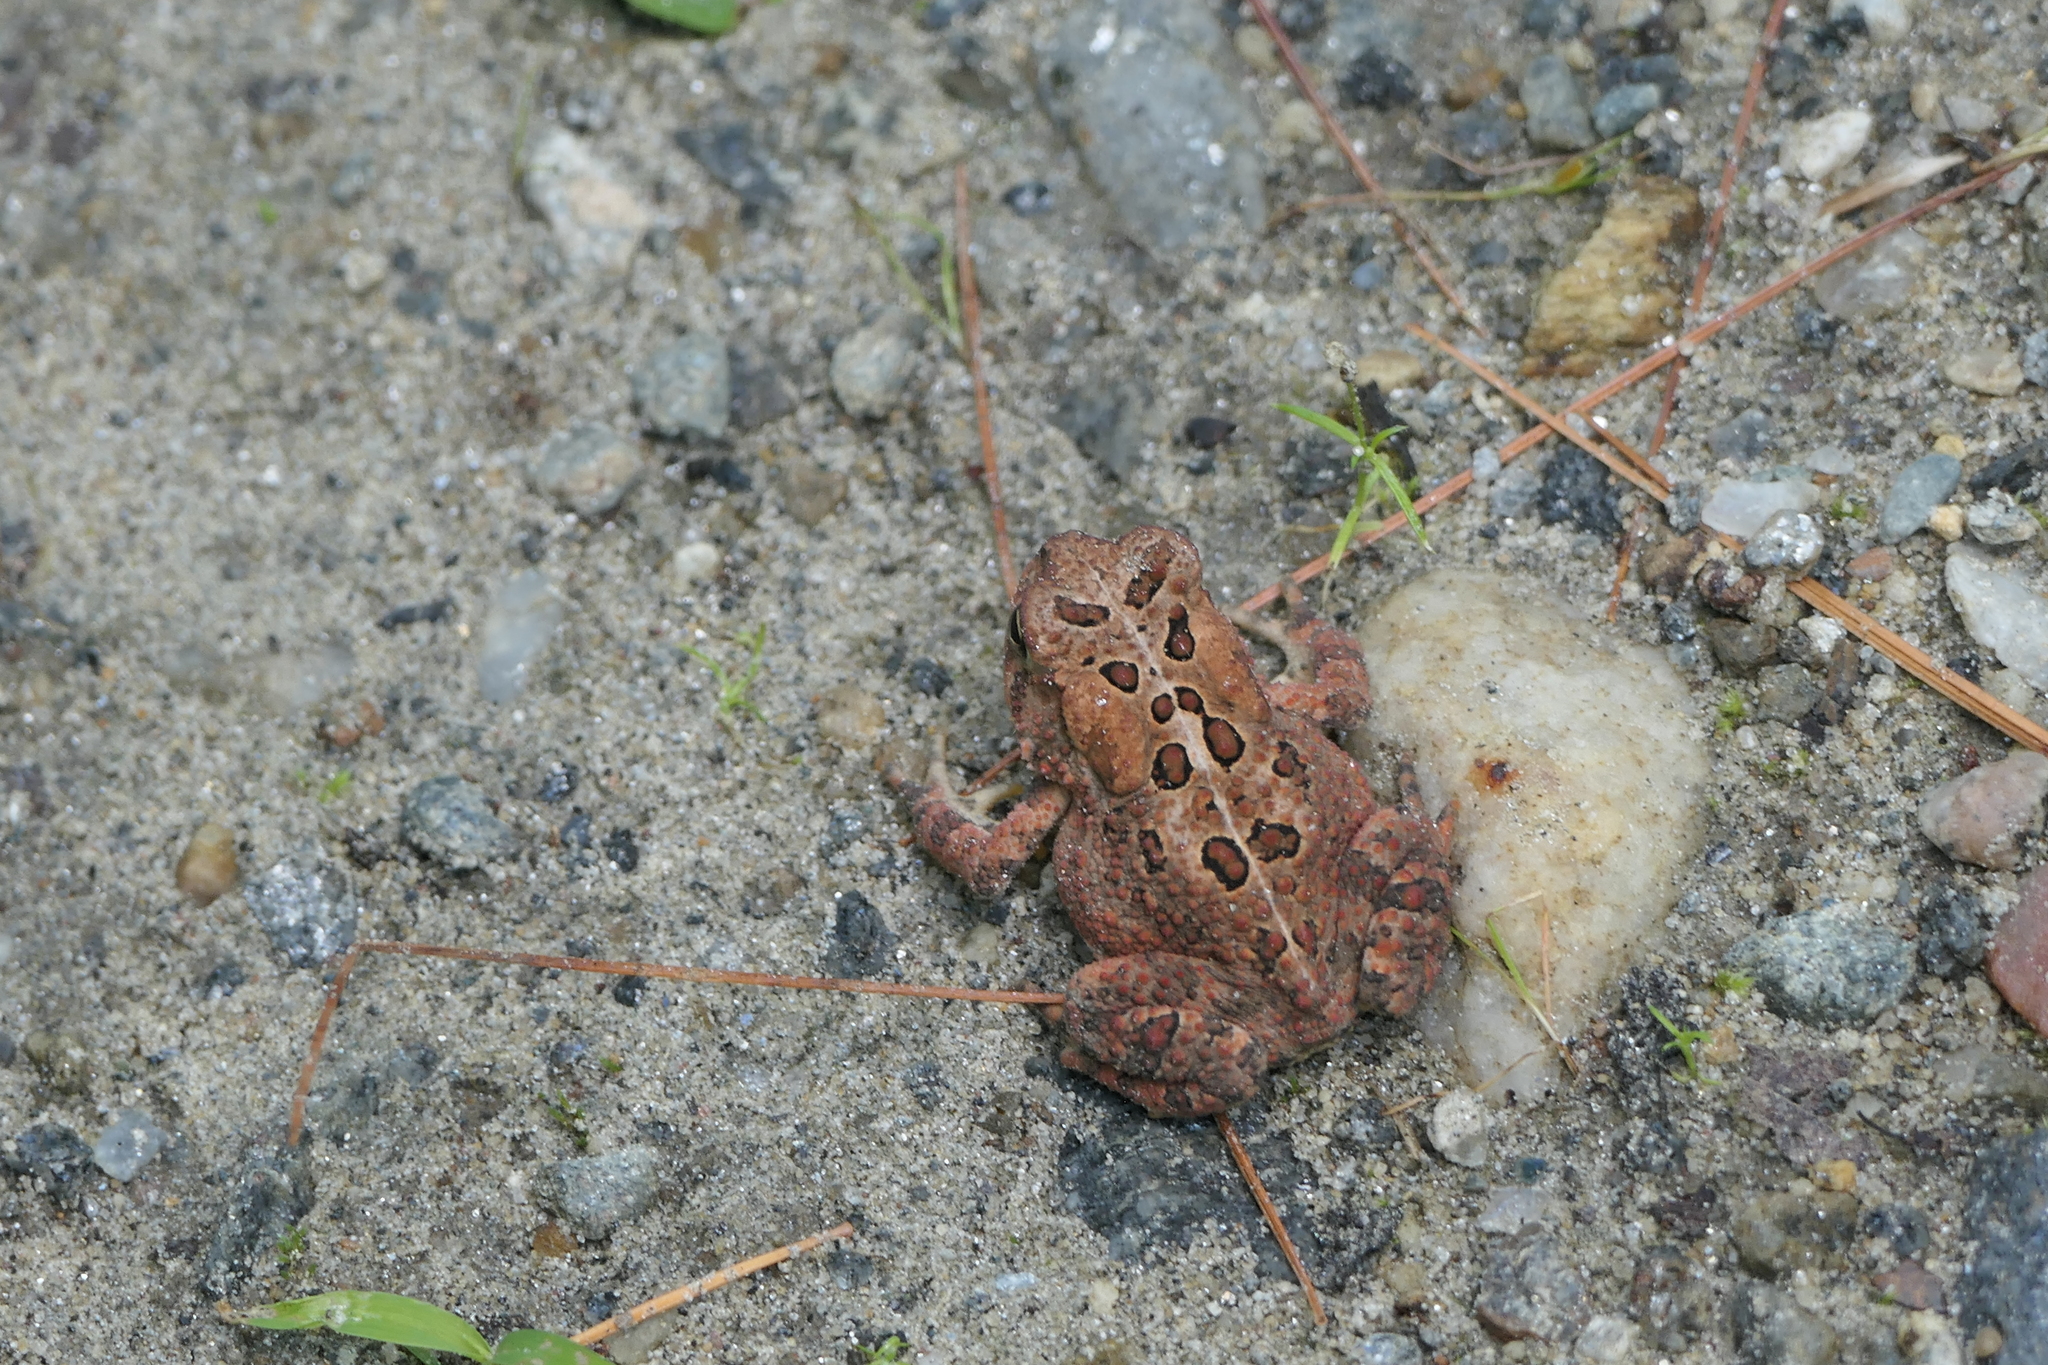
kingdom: Animalia
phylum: Chordata
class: Amphibia
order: Anura
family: Bufonidae
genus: Anaxyrus
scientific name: Anaxyrus americanus
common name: American toad
